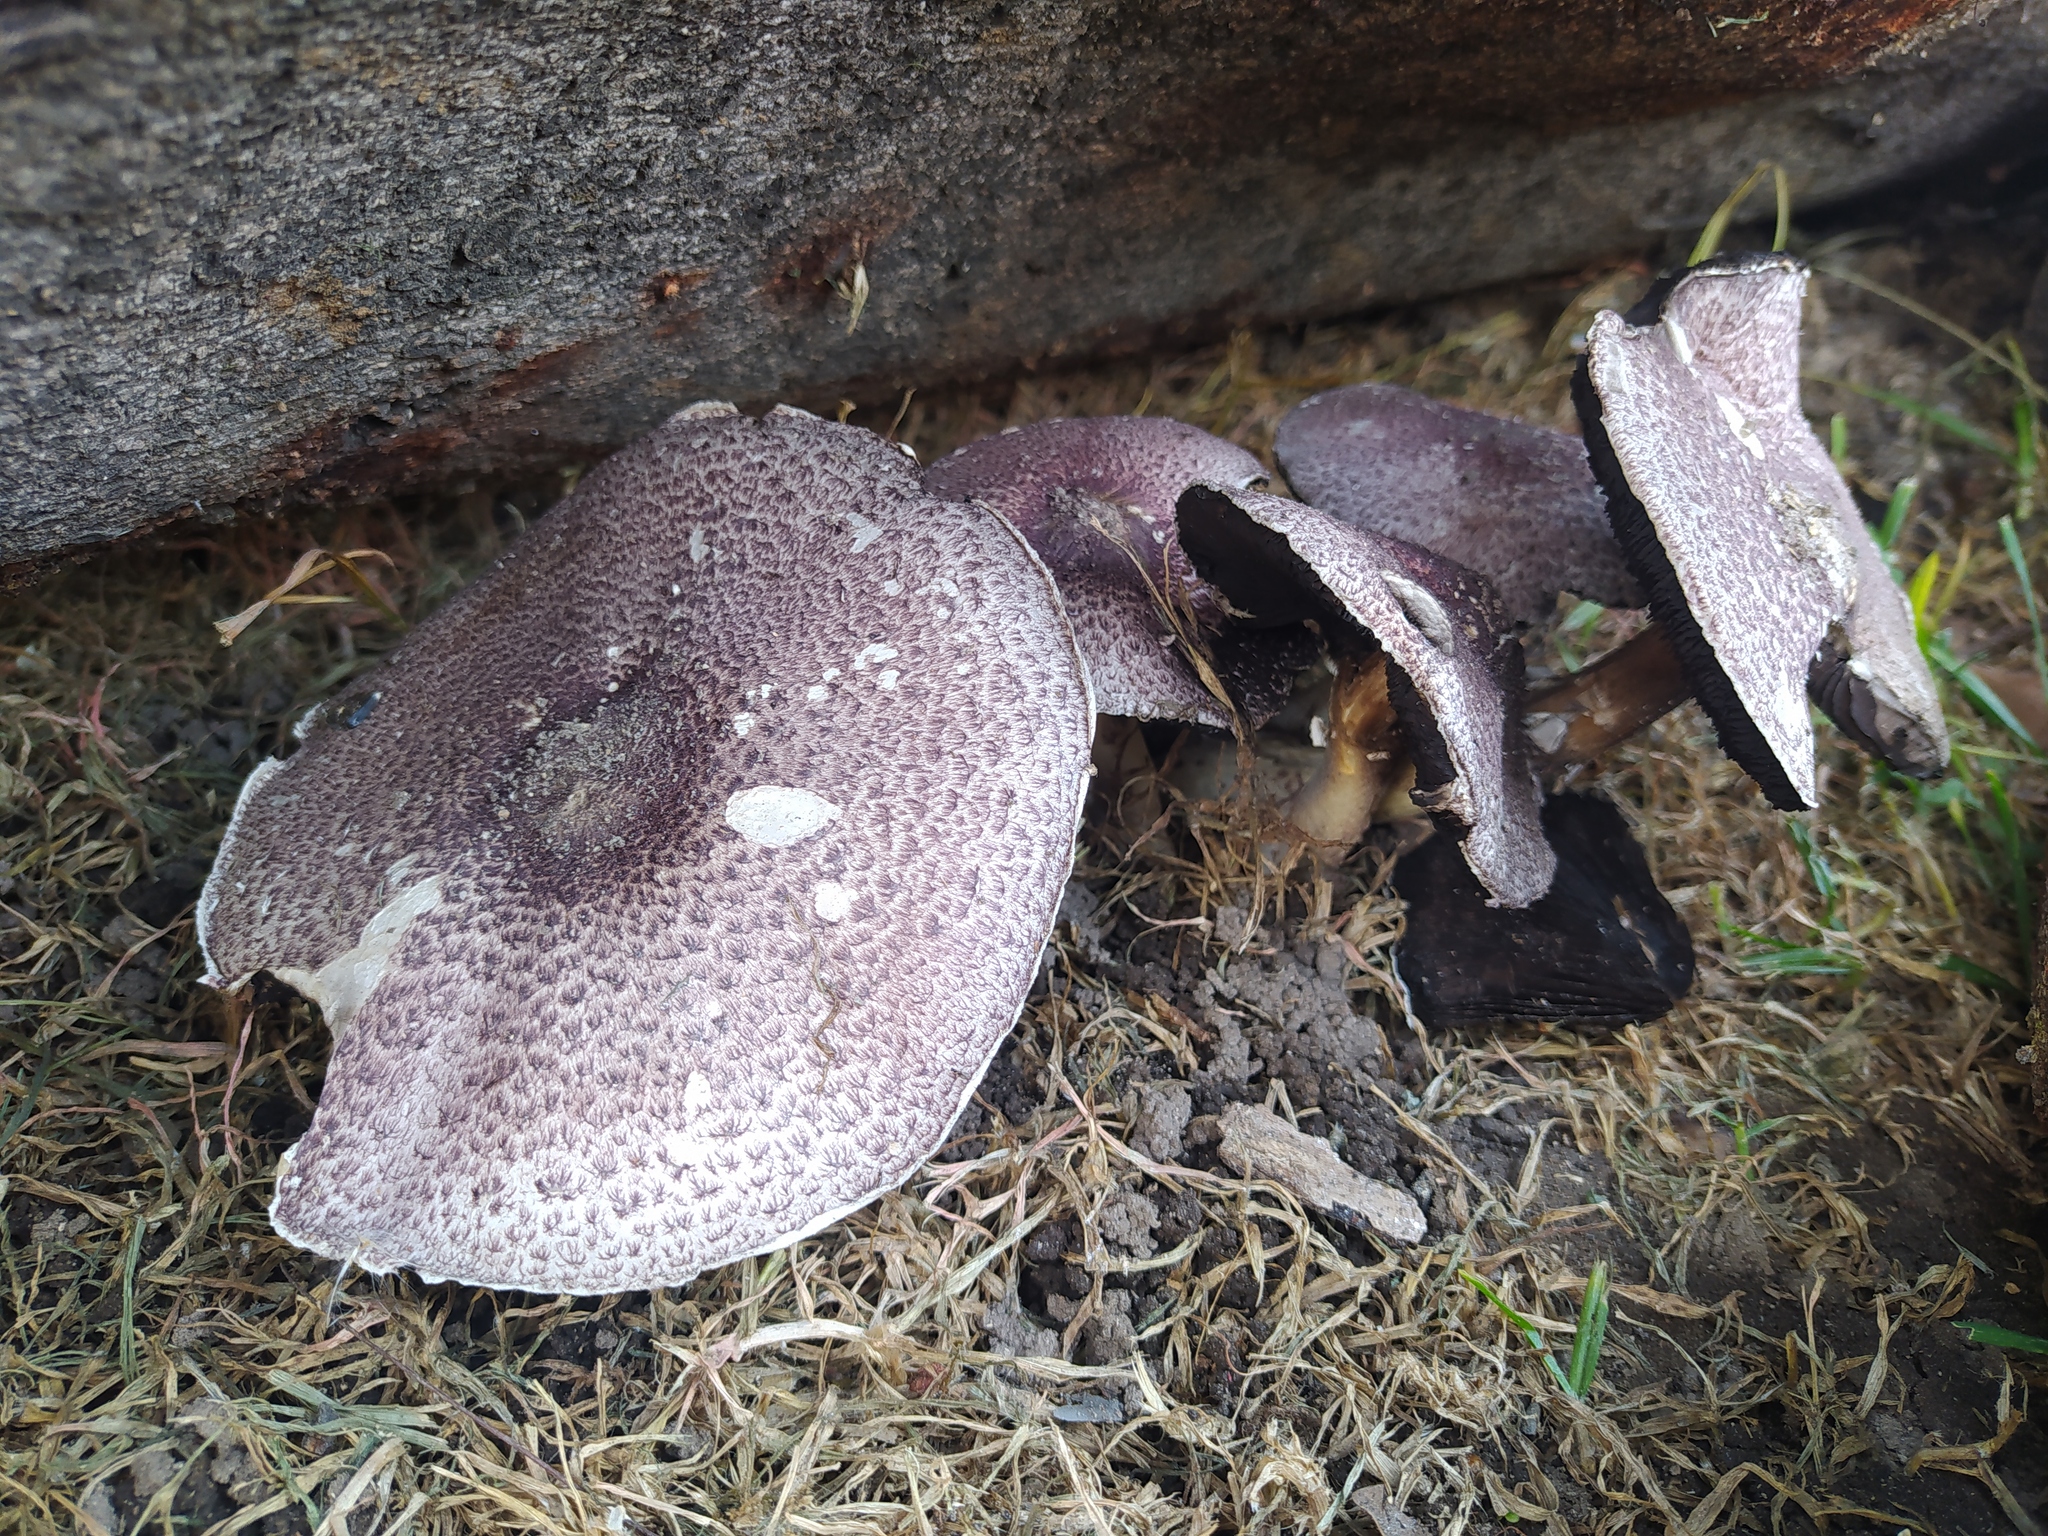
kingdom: Fungi
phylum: Basidiomycota
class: Agaricomycetes
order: Agaricales
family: Agaricaceae
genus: Leucoagaricus
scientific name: Leucoagaricus lilaceus
